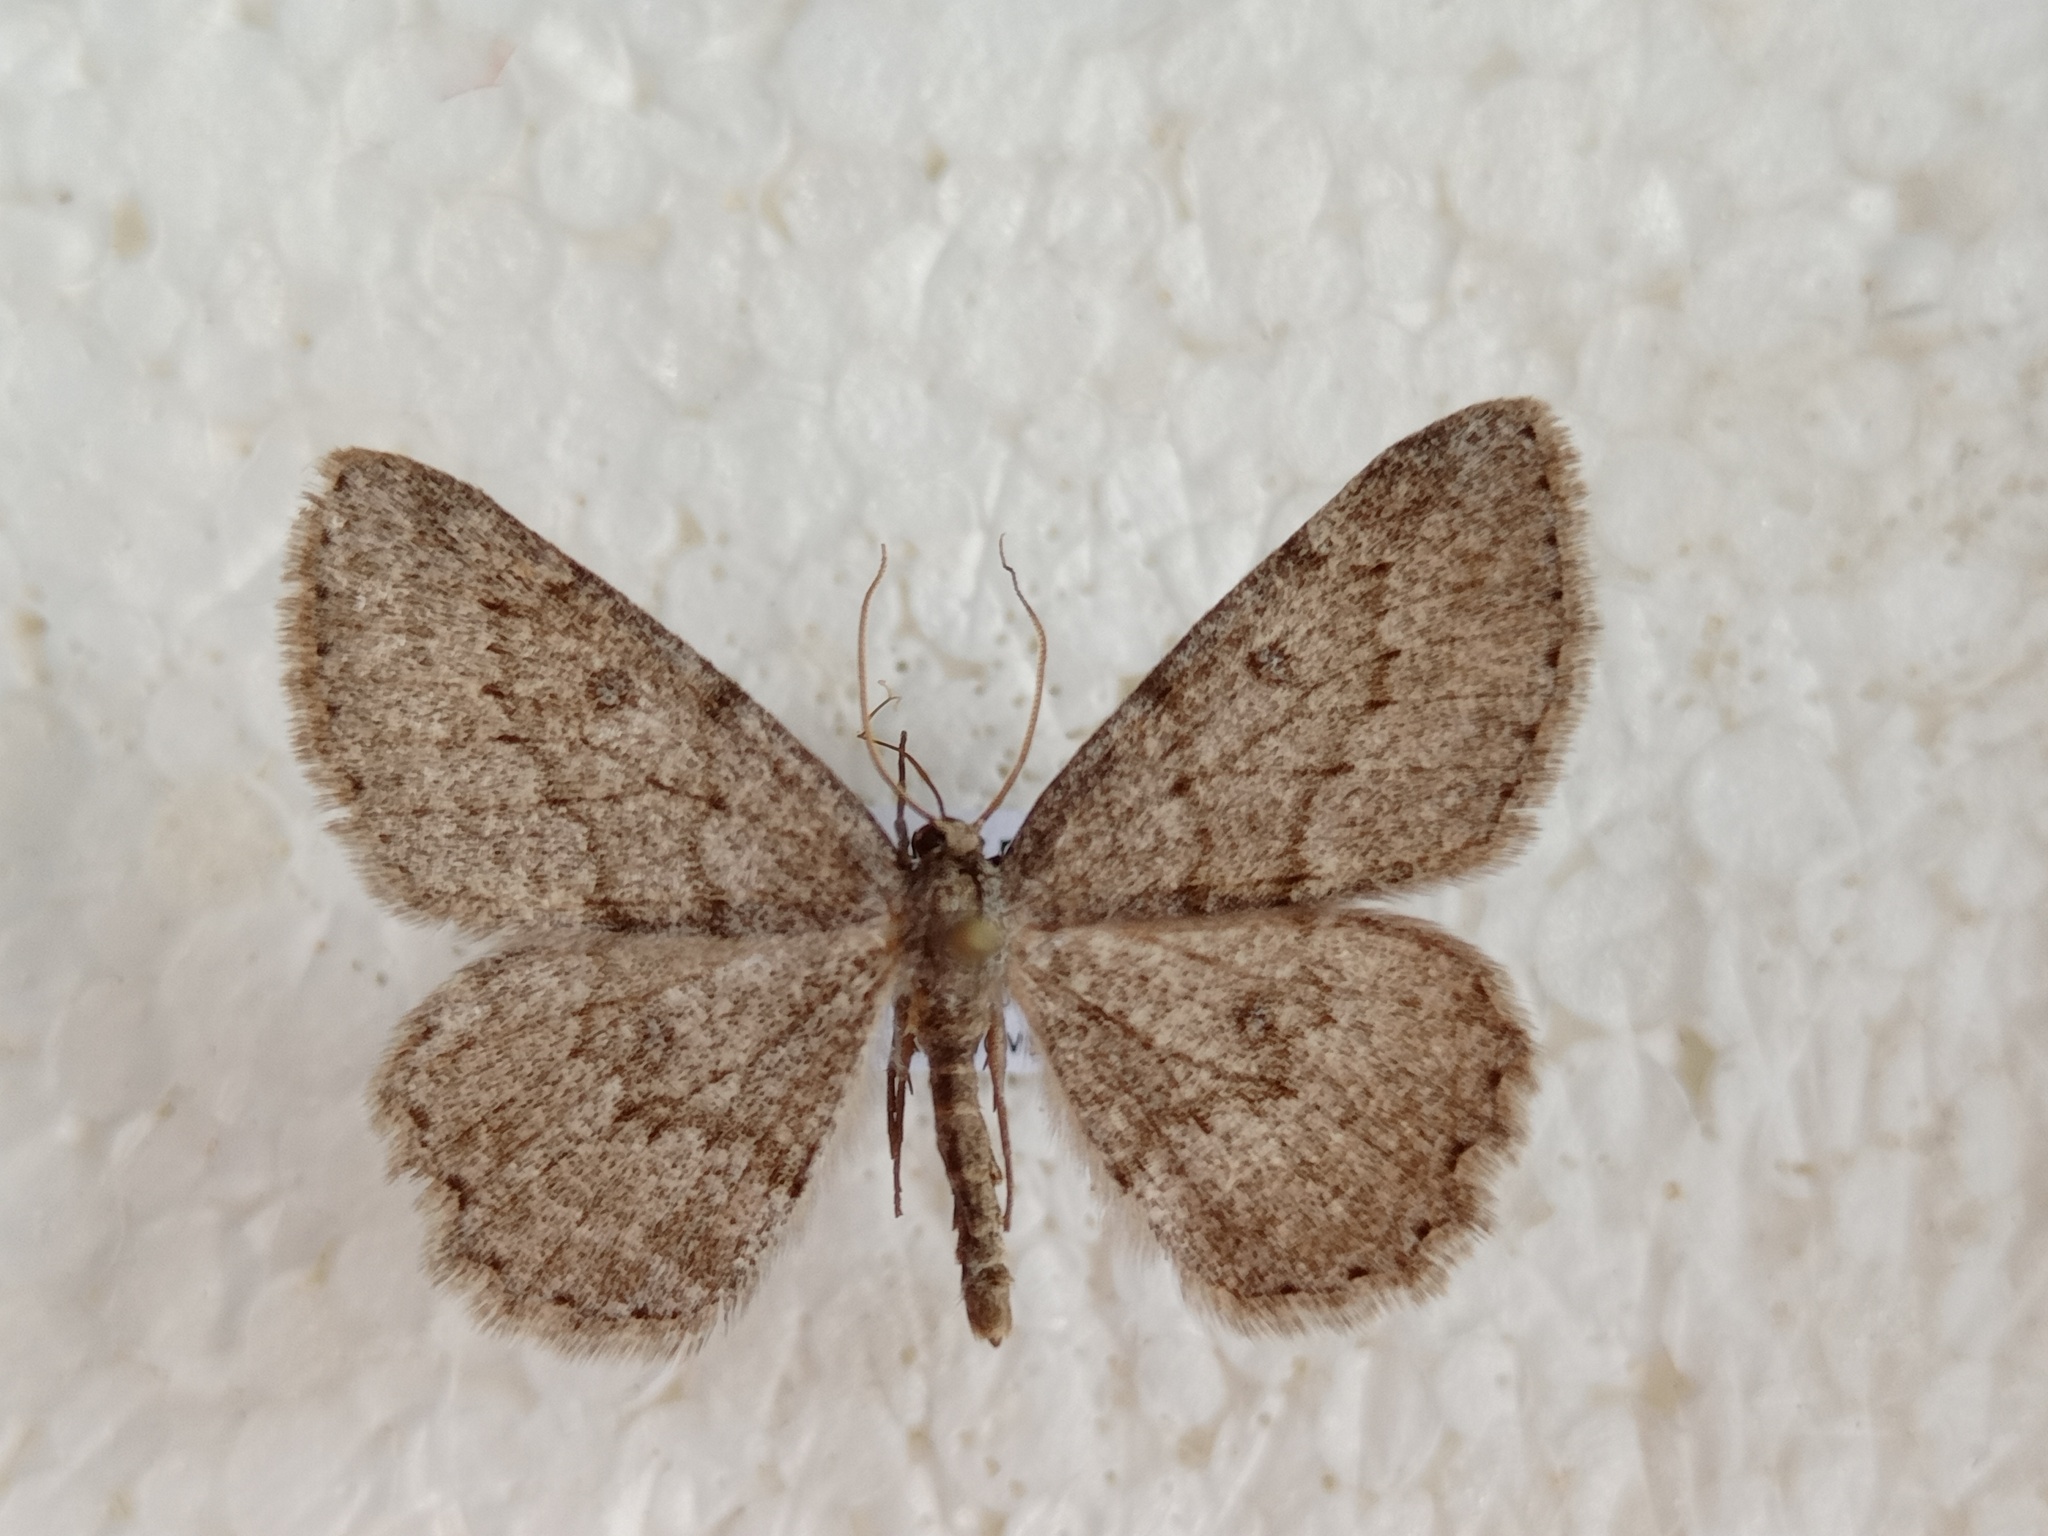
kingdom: Animalia
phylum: Arthropoda
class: Insecta
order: Lepidoptera
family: Geometridae
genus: Charissa
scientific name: Charissa ambiguata
